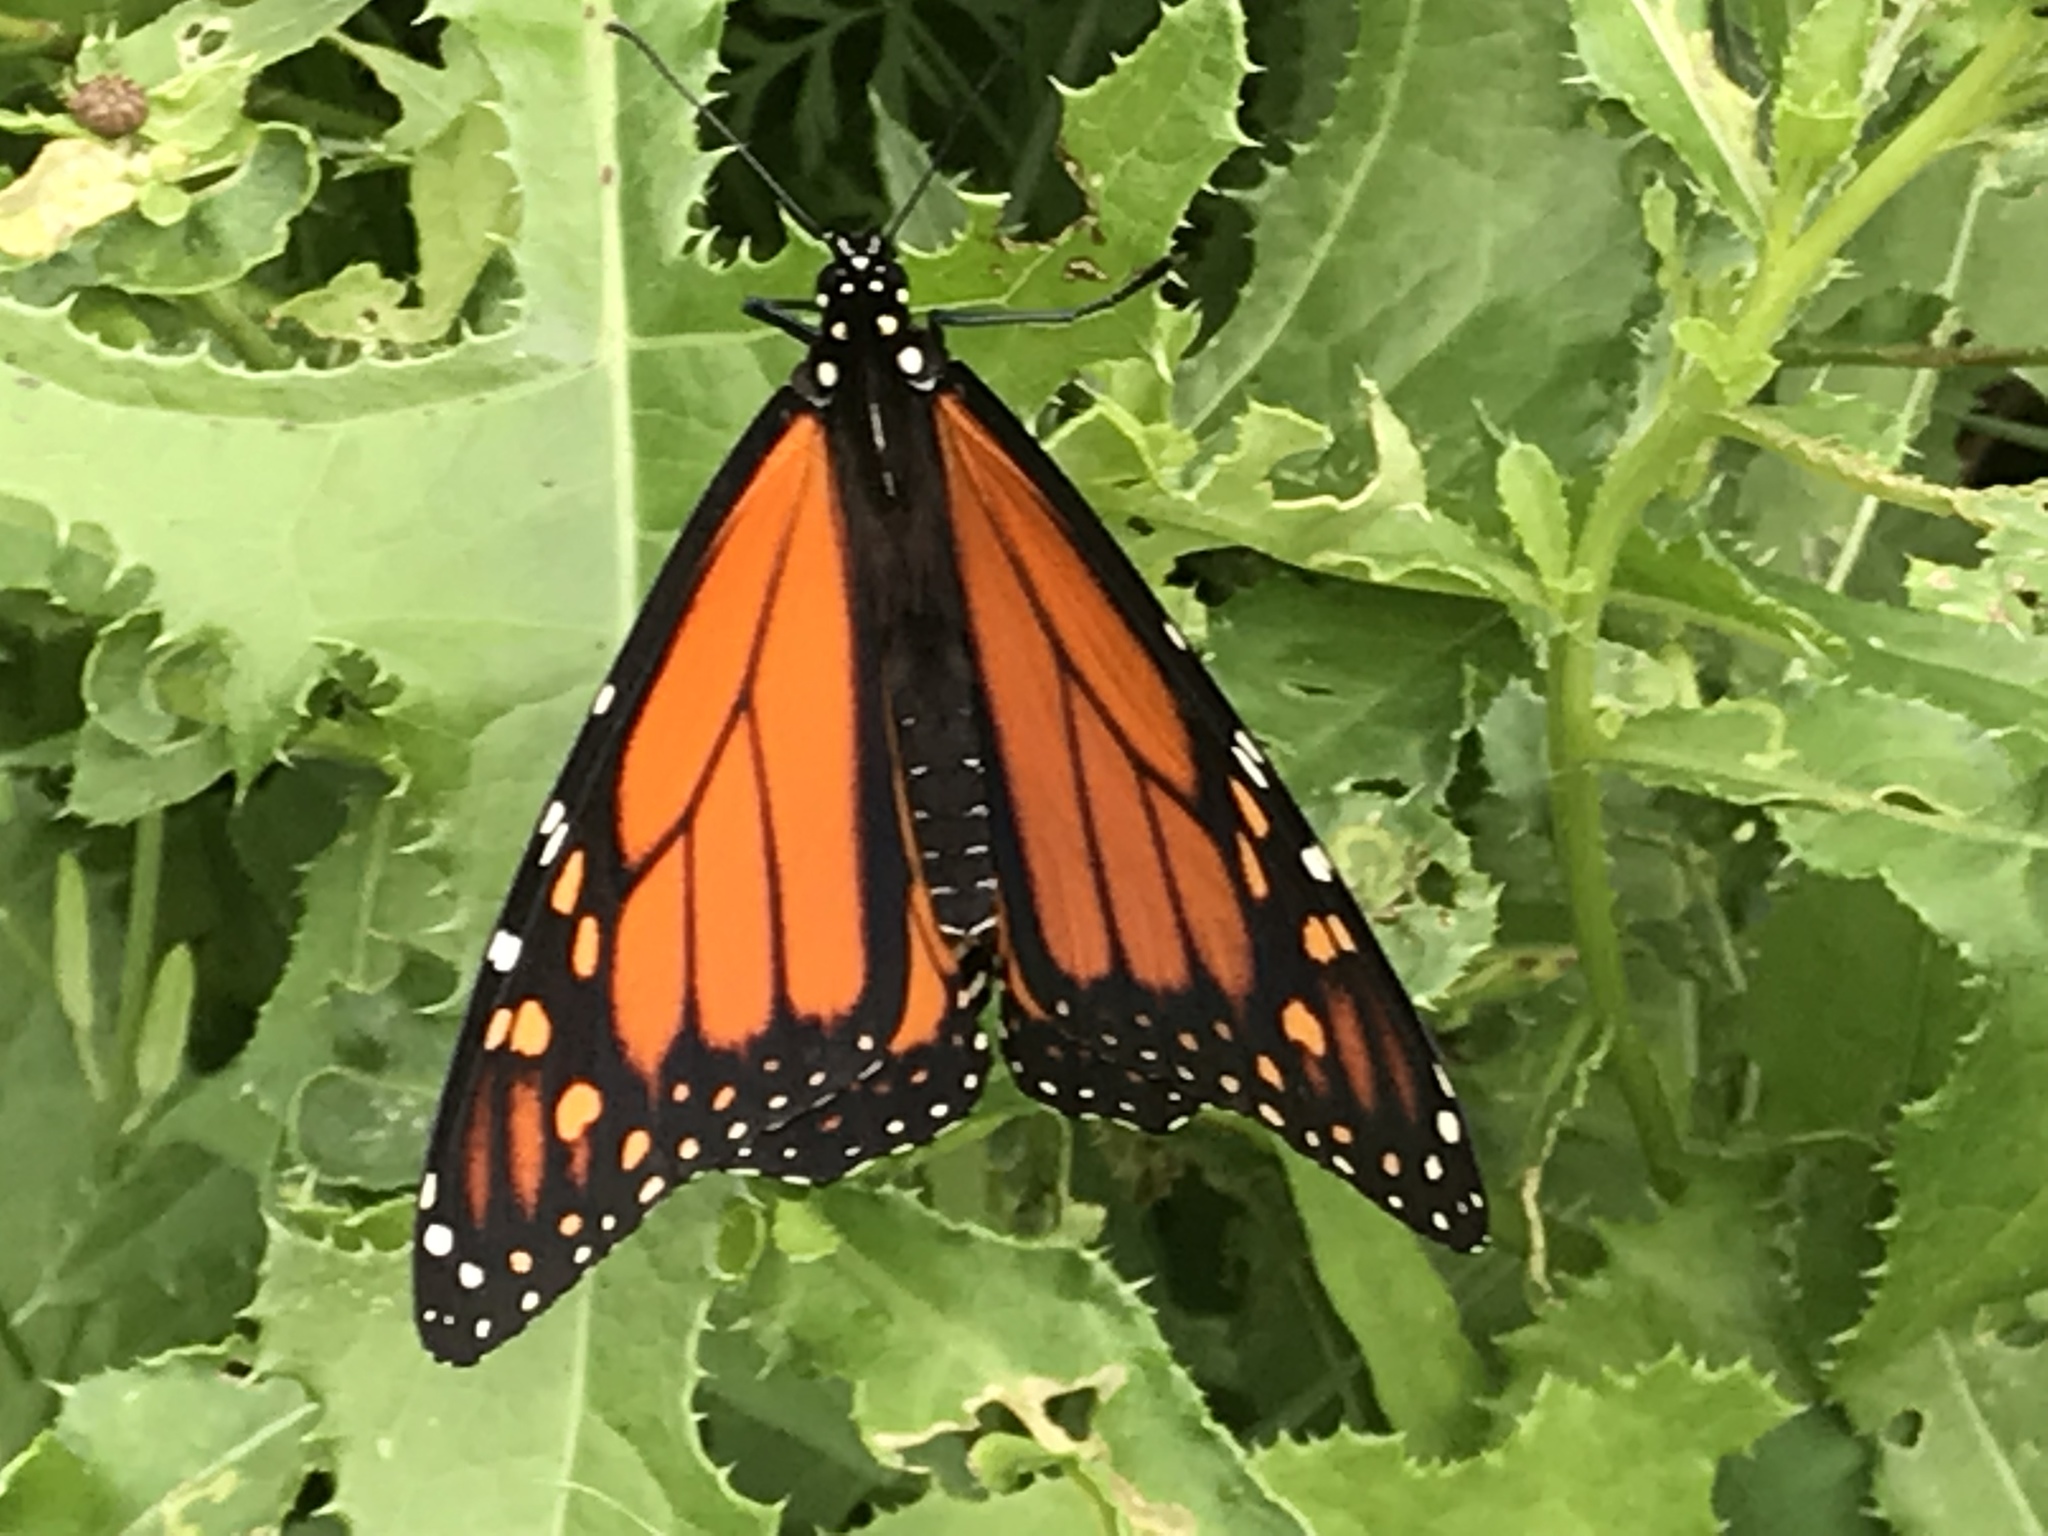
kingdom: Animalia
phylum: Arthropoda
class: Insecta
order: Lepidoptera
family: Nymphalidae
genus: Danaus
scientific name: Danaus plexippus
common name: Monarch
